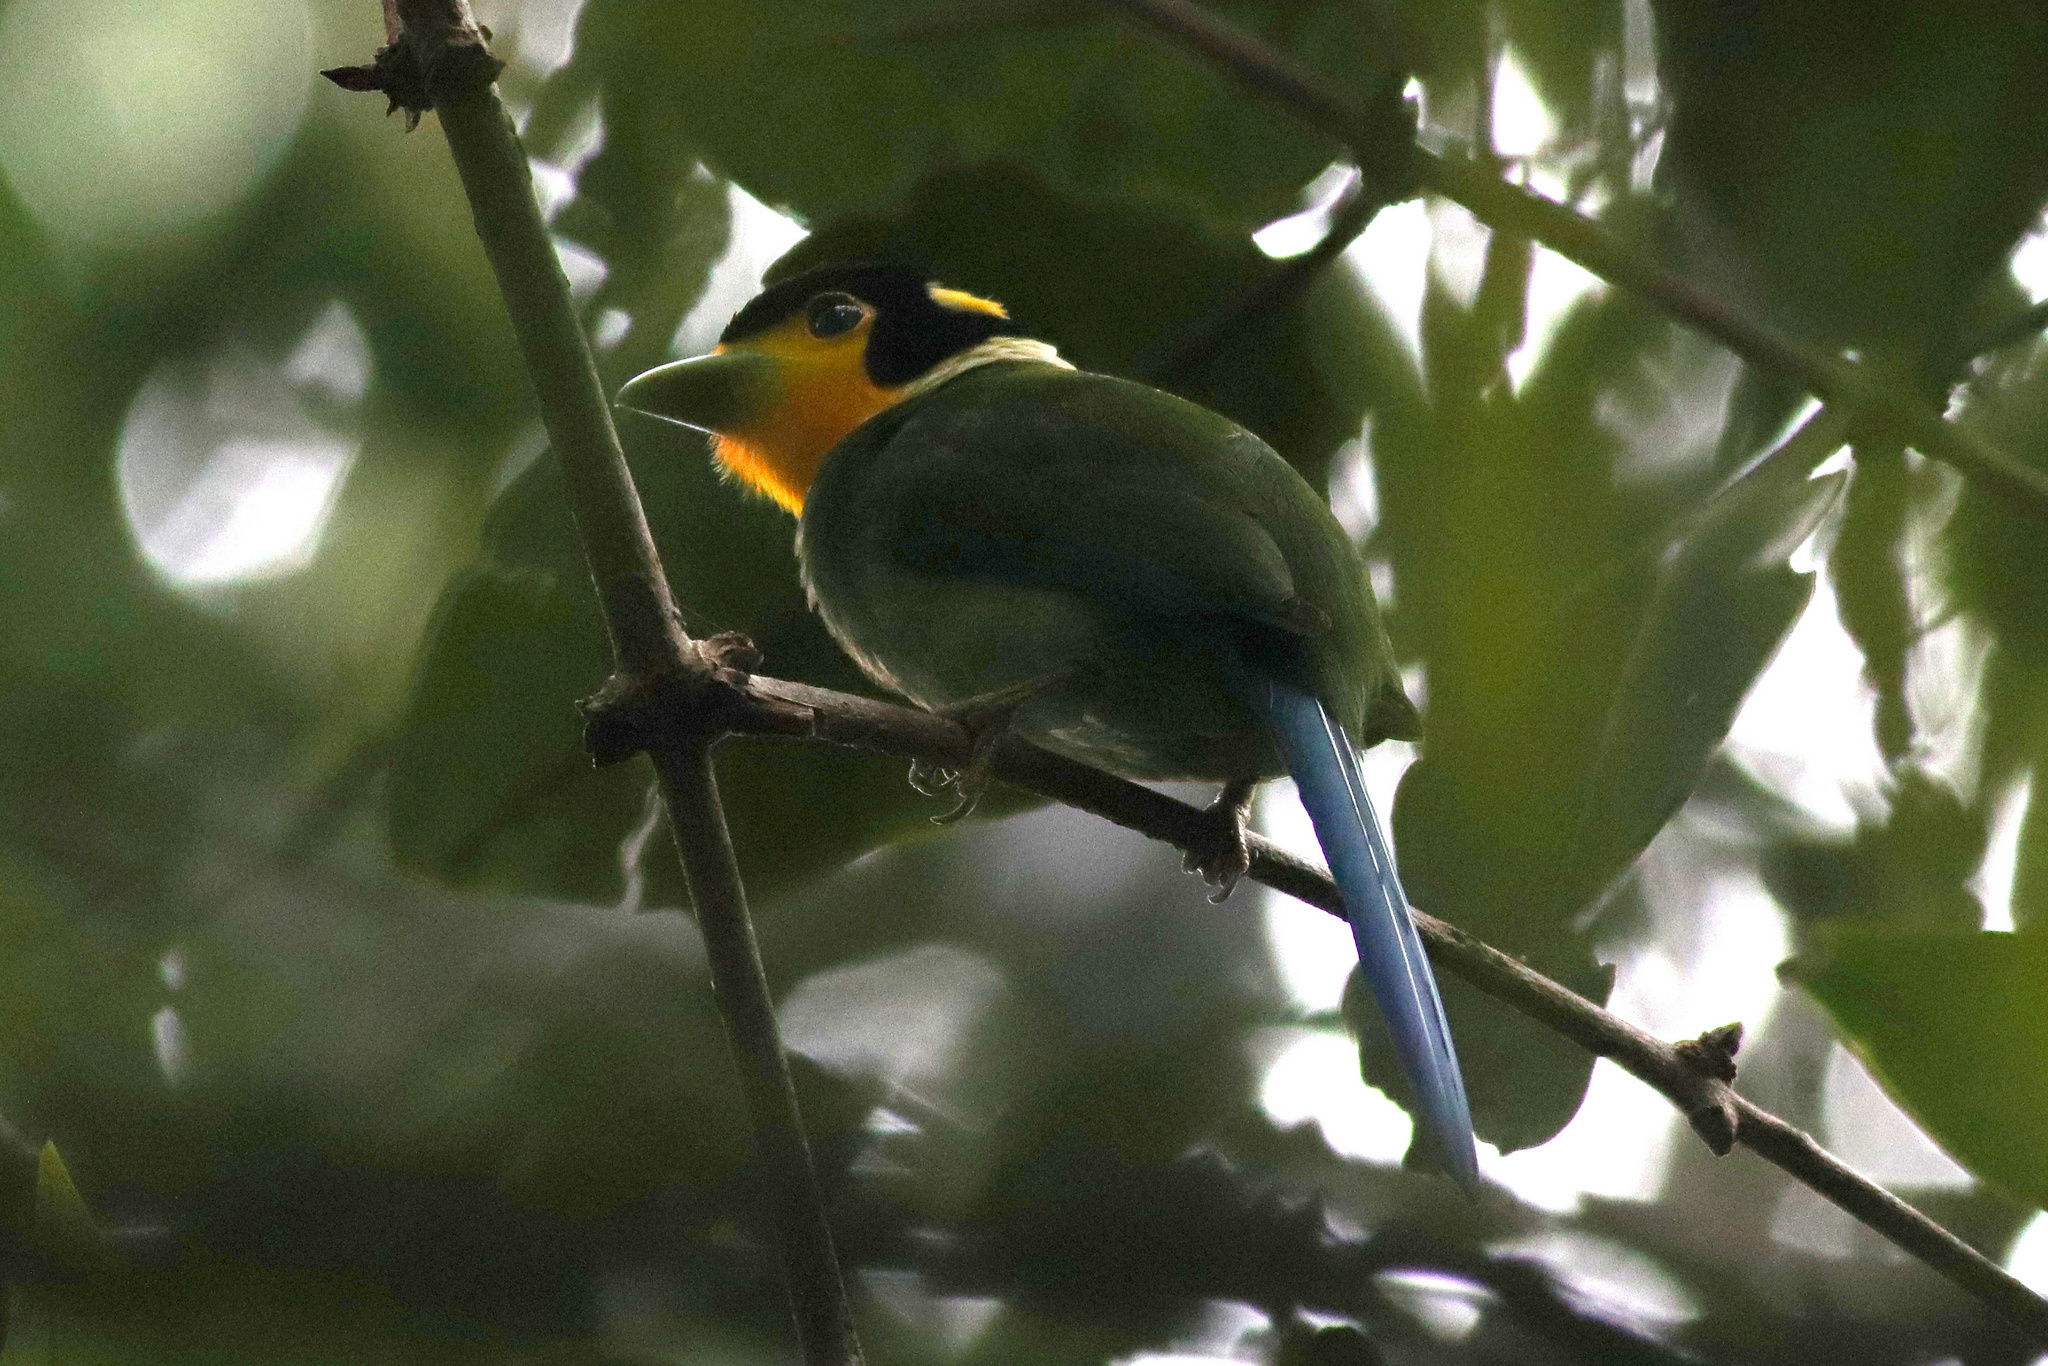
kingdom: Animalia
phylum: Chordata
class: Aves
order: Passeriformes
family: Eurylaimidae
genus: Psarisomus
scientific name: Psarisomus dalhousiae
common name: Long-tailed broadbill
